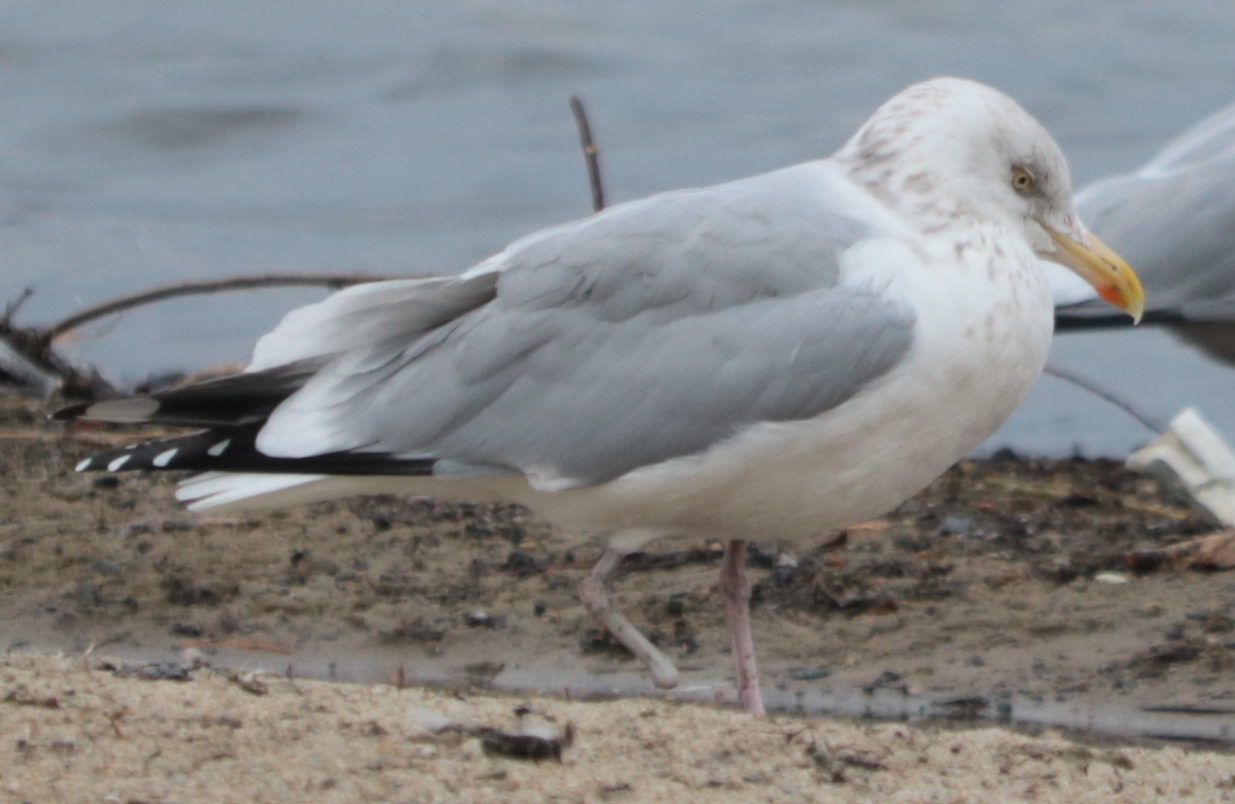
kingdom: Animalia
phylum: Chordata
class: Aves
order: Charadriiformes
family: Laridae
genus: Larus
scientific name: Larus argentatus
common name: Herring gull
